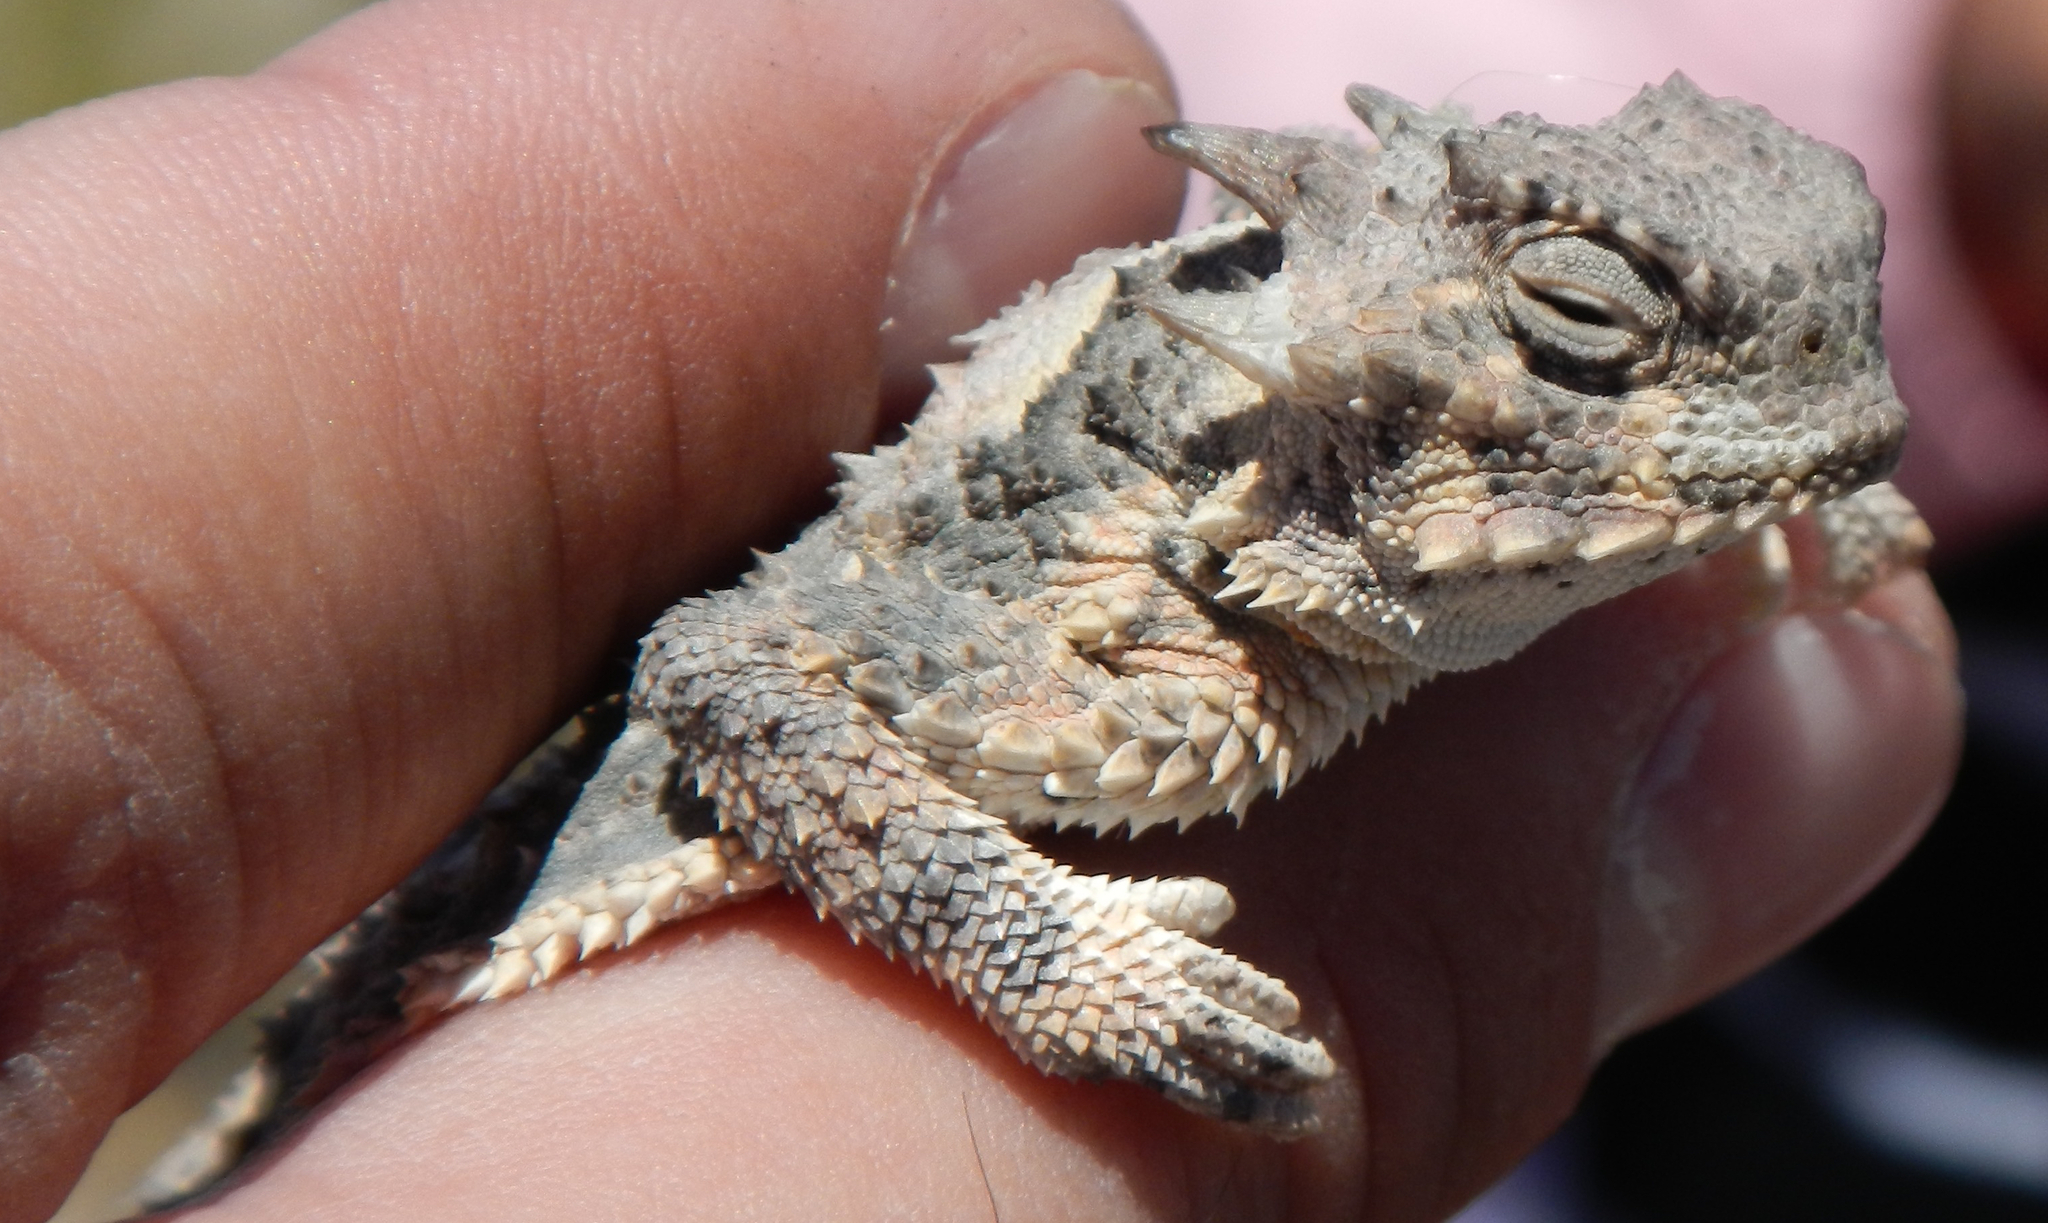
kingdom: Animalia
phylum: Chordata
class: Squamata
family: Phrynosomatidae
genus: Phrynosoma
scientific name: Phrynosoma platyrhinos
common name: Desert horned lizard
